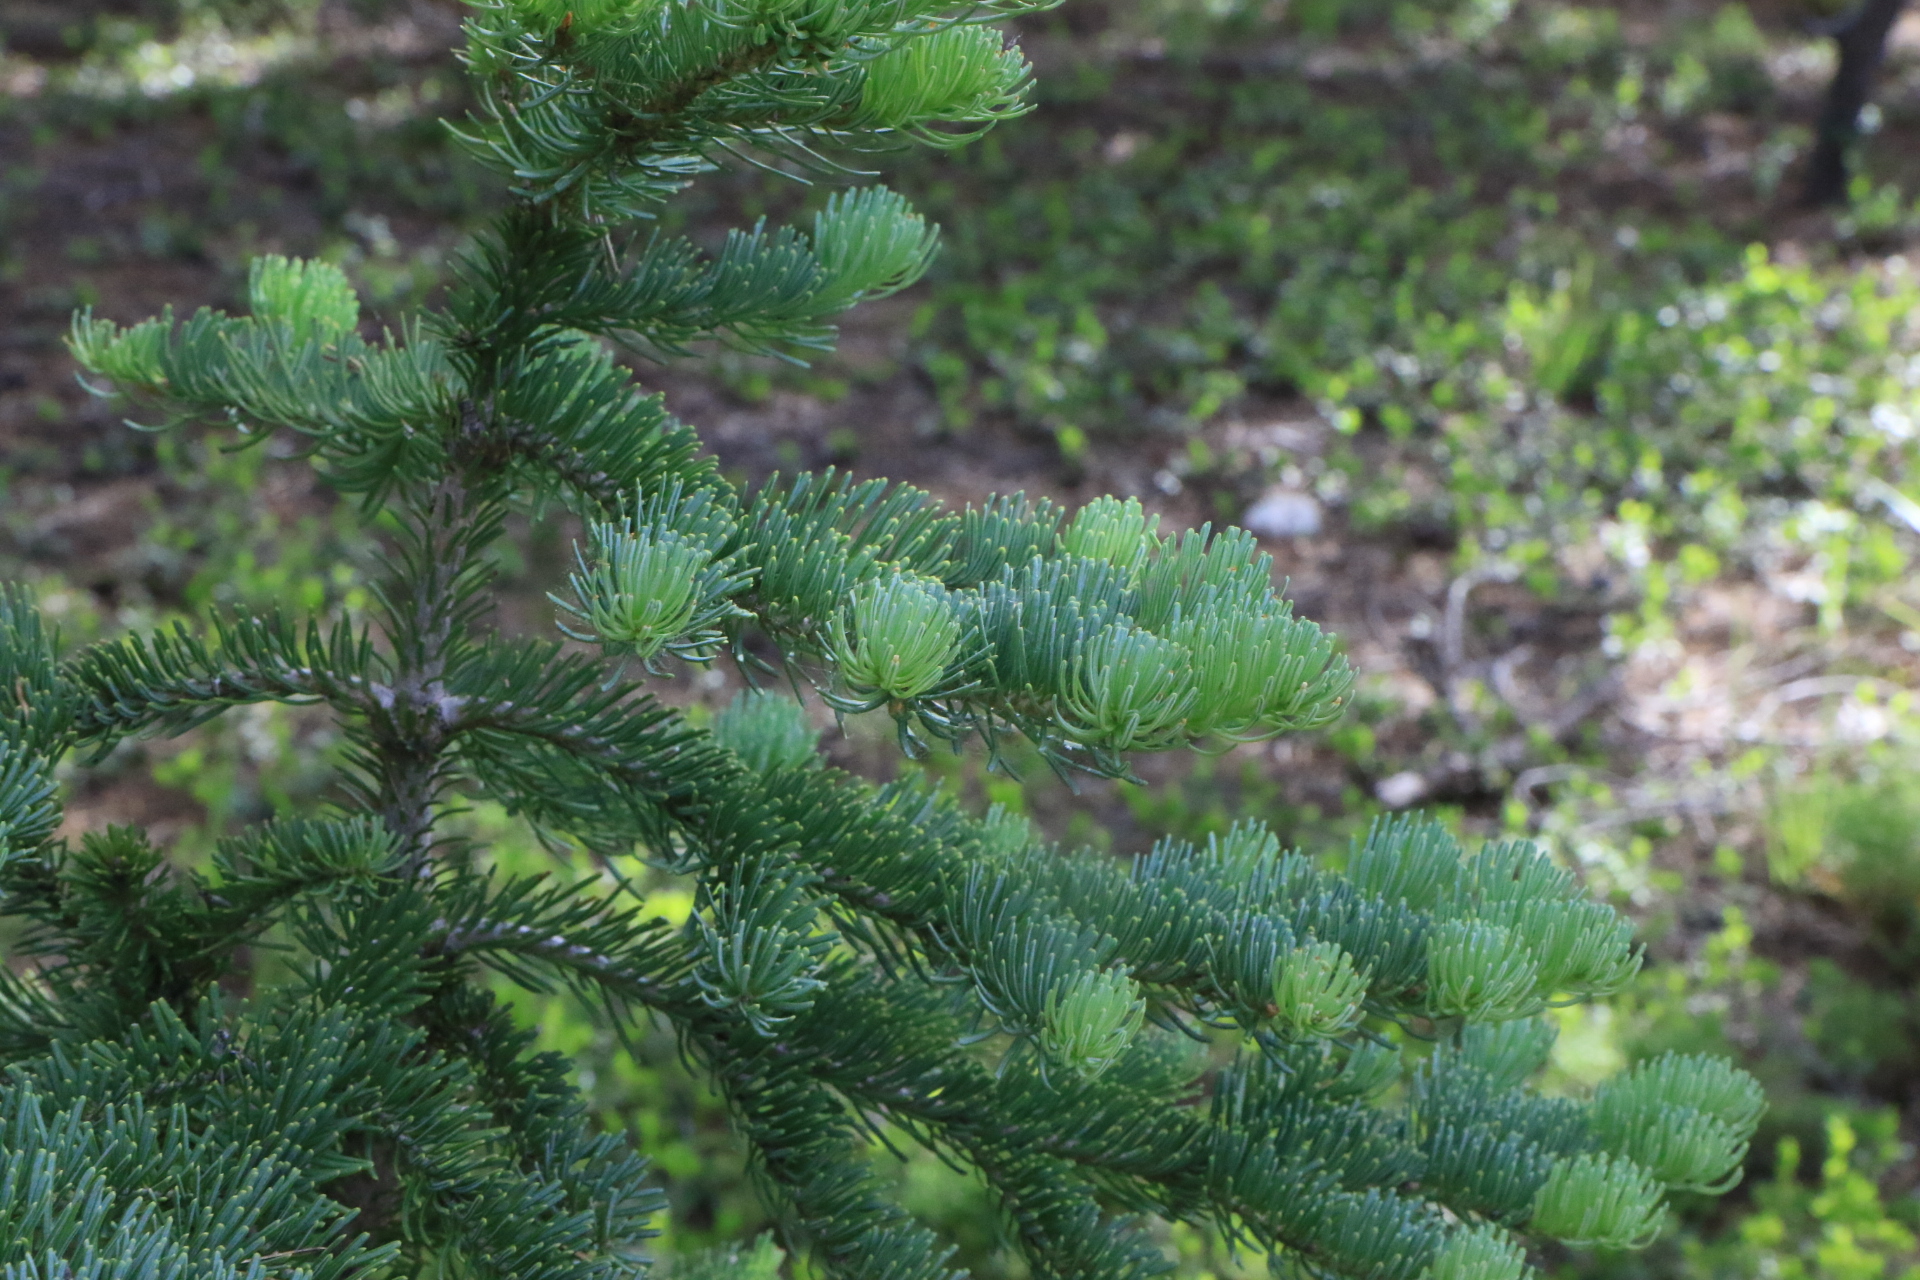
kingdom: Plantae
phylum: Tracheophyta
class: Pinopsida
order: Pinales
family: Pinaceae
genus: Abies
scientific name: Abies lasiocarpa
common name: Subalpine fir
